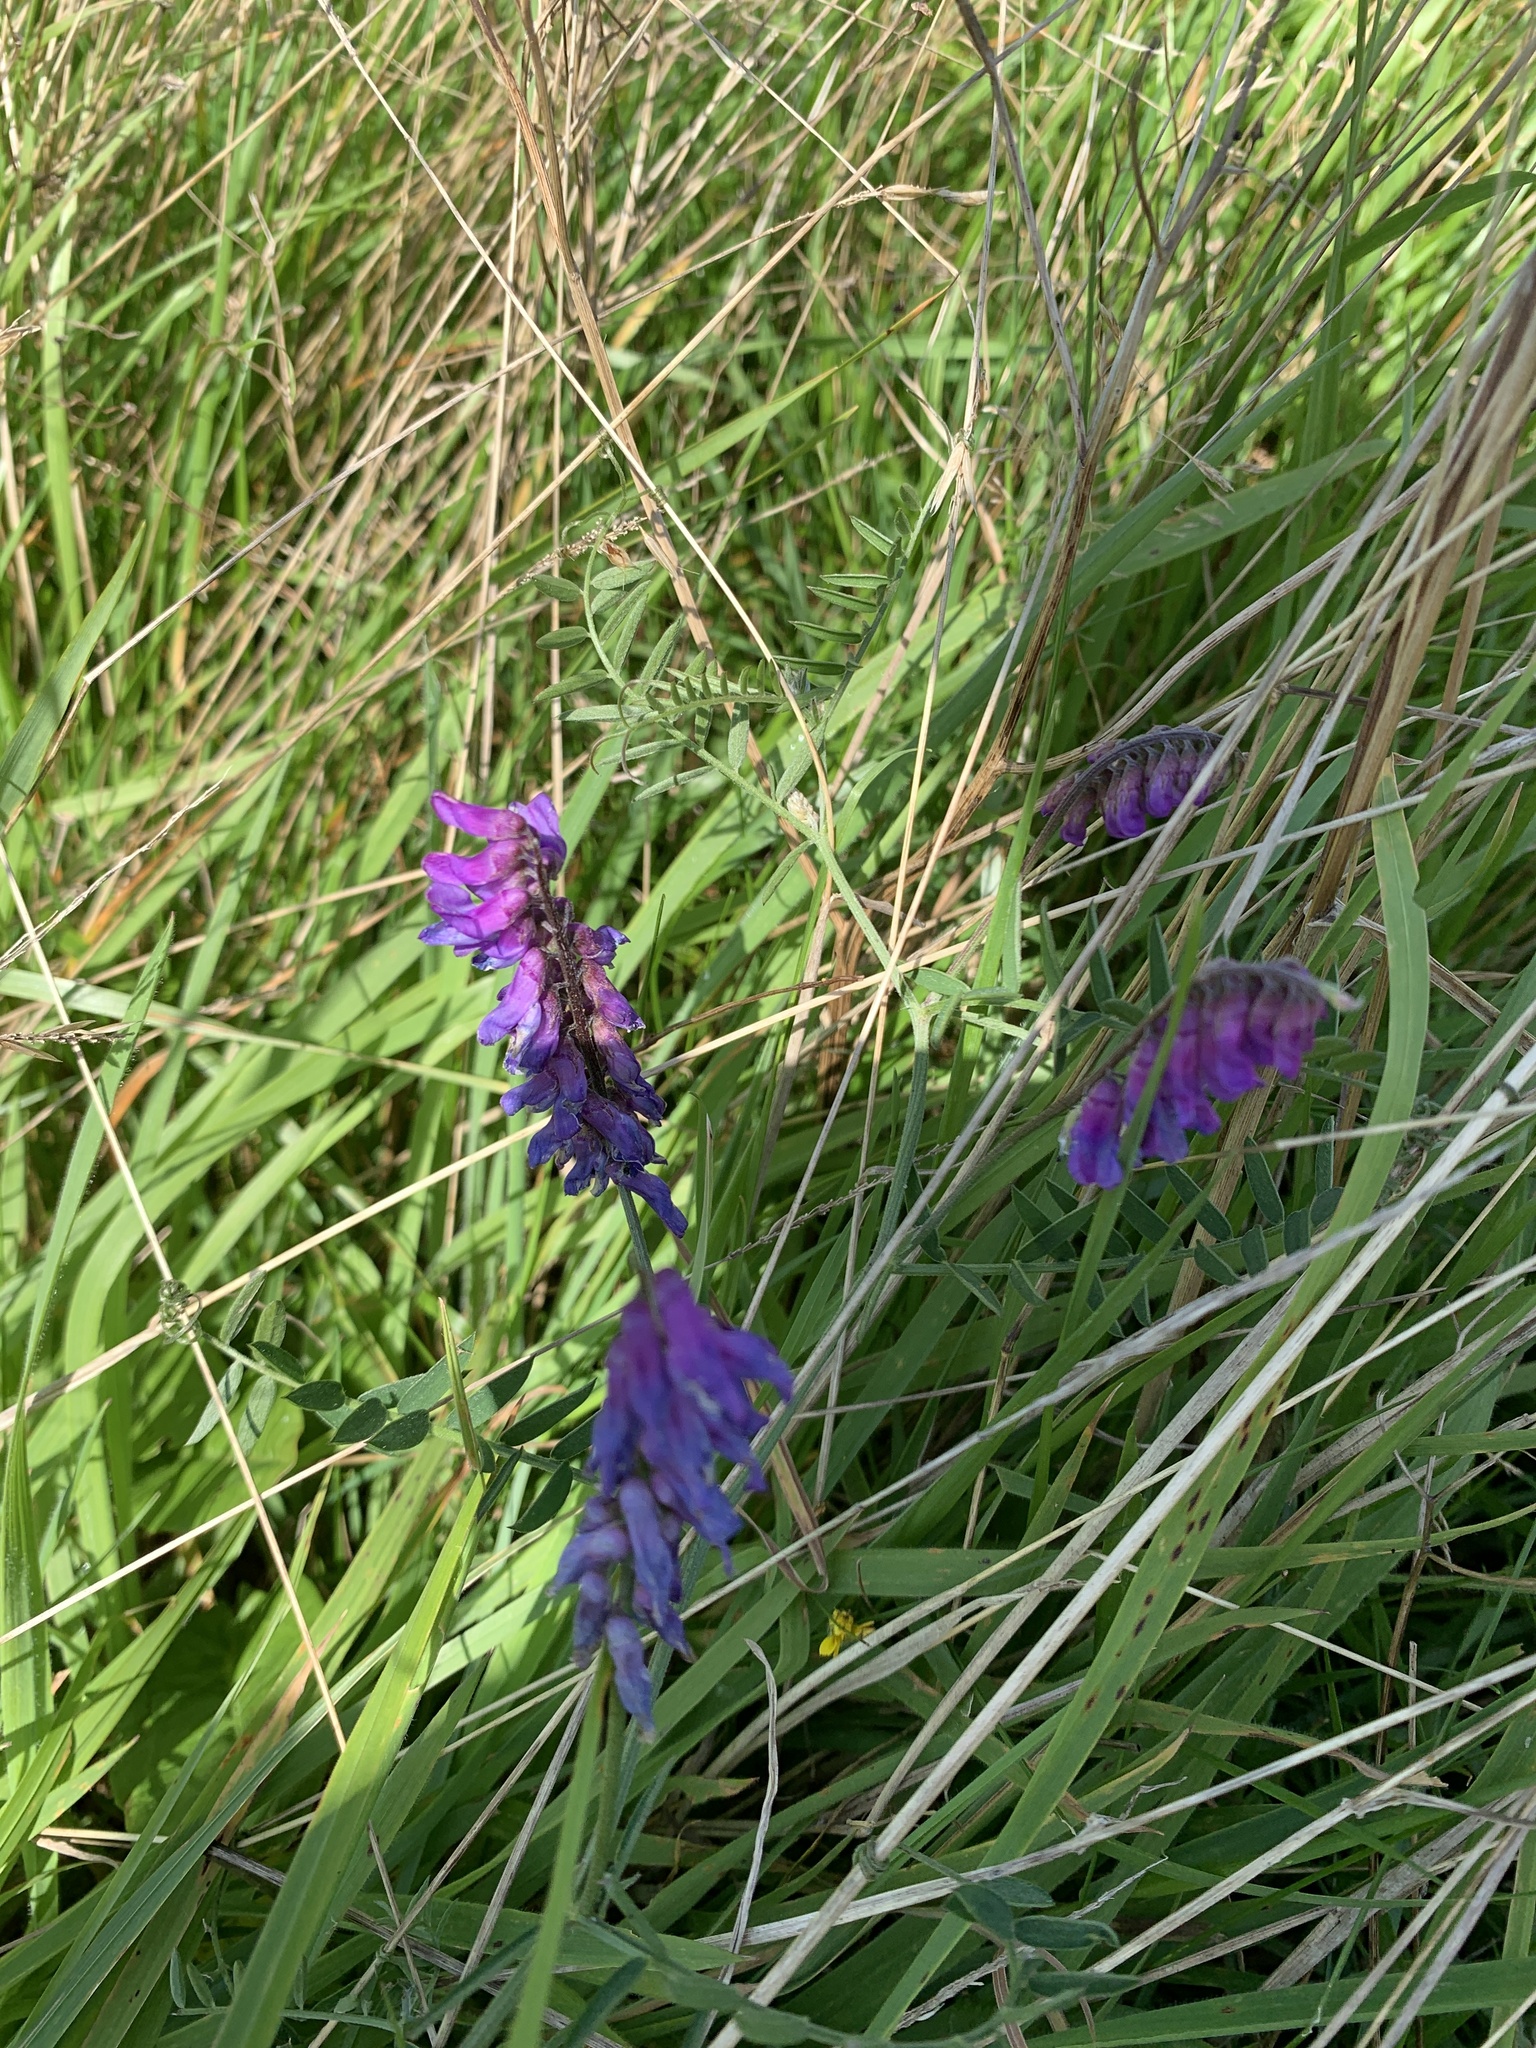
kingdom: Plantae
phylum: Tracheophyta
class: Magnoliopsida
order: Fabales
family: Fabaceae
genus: Vicia
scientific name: Vicia cracca
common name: Bird vetch
